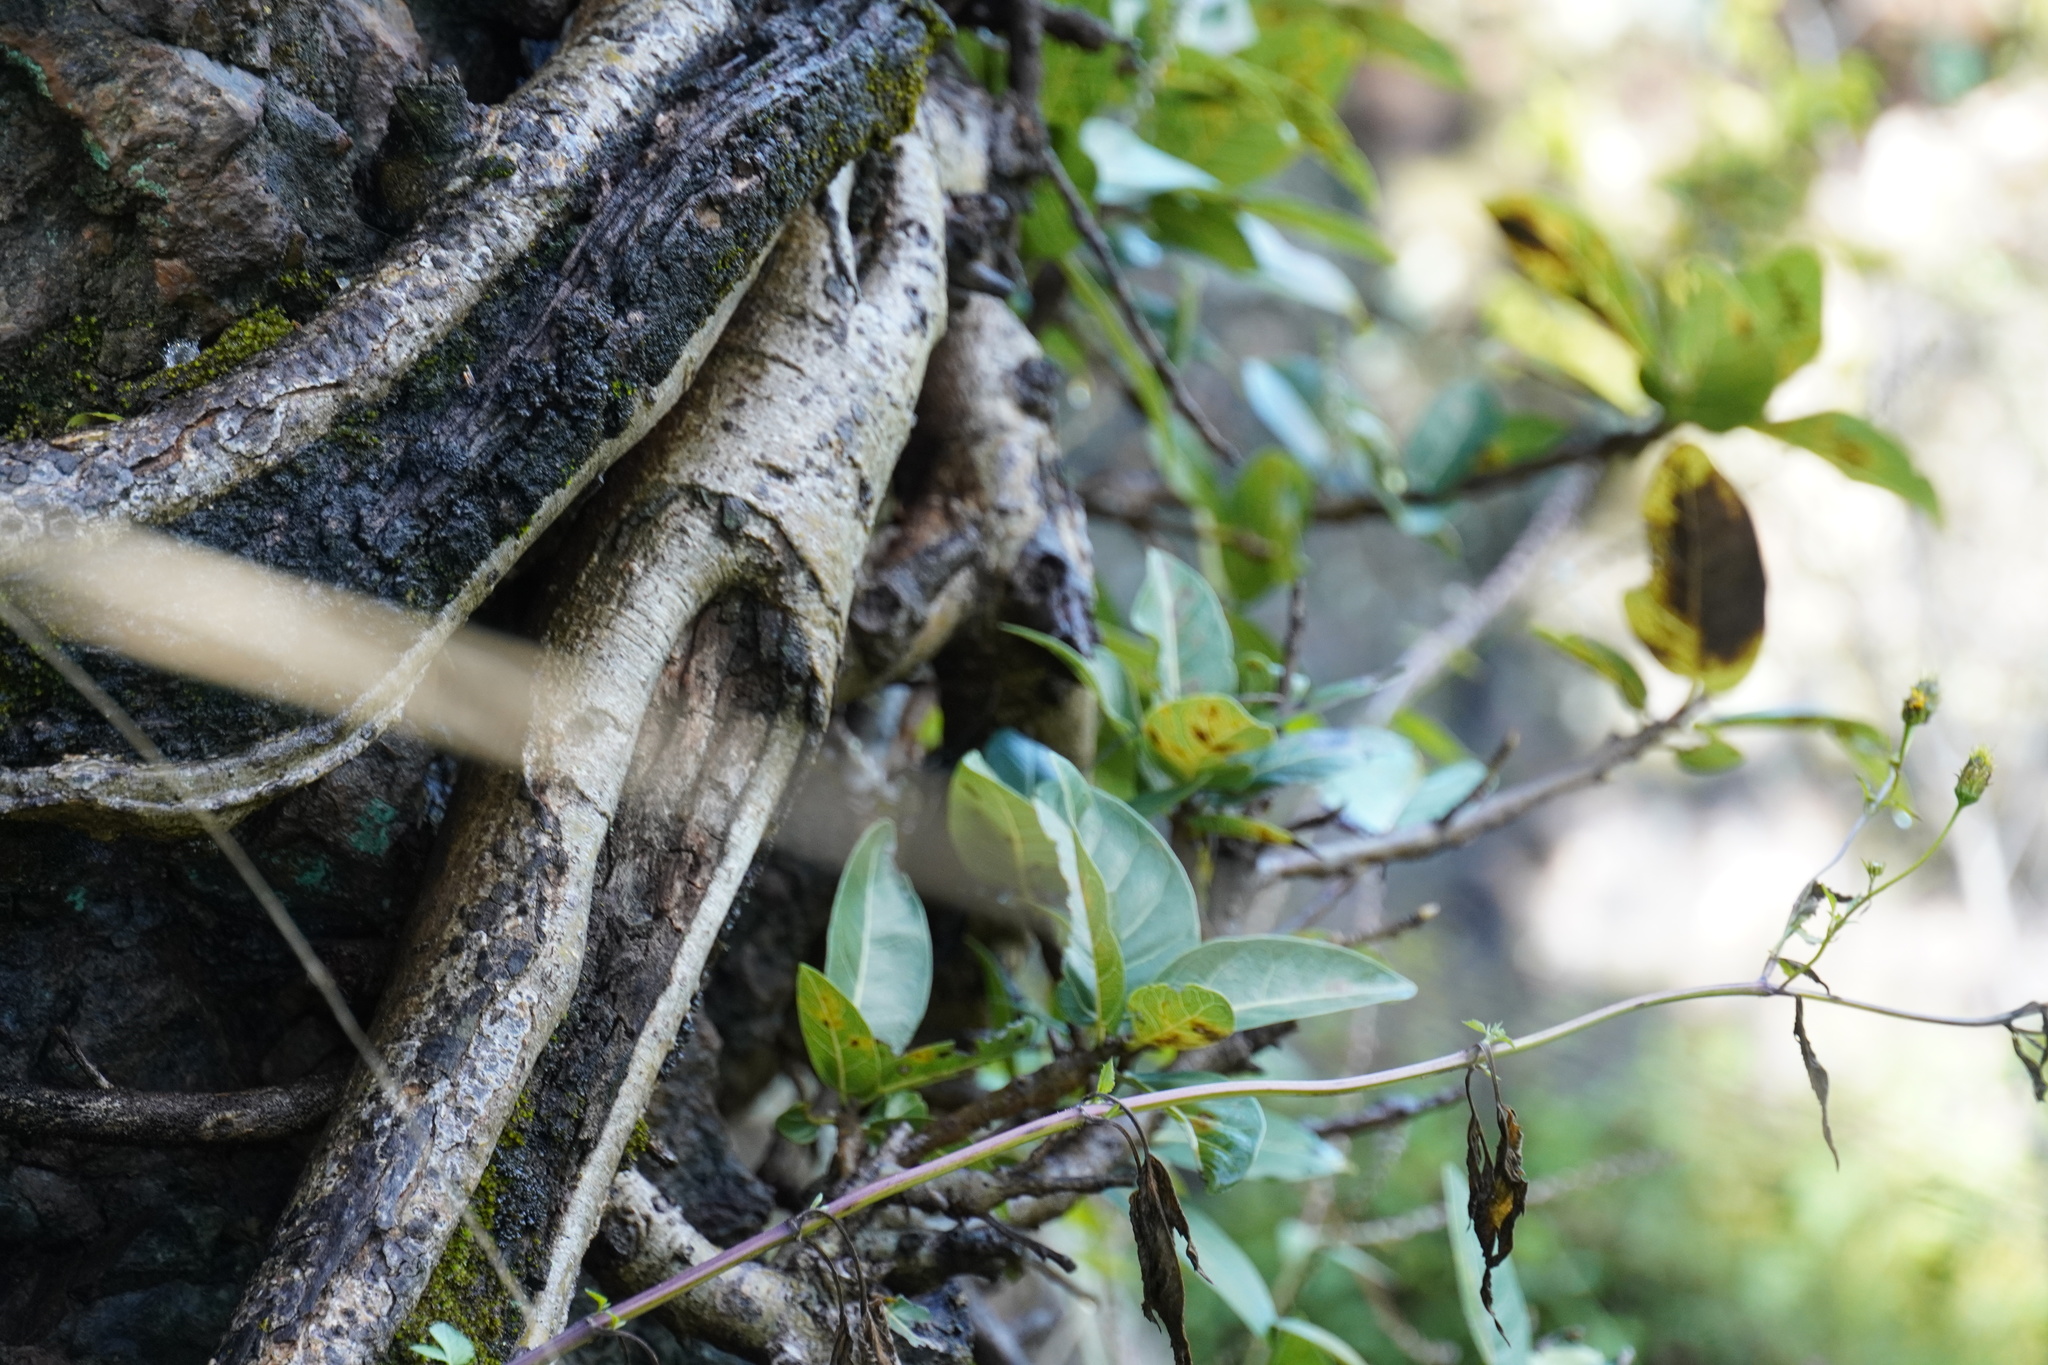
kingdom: Plantae
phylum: Tracheophyta
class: Magnoliopsida
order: Rosales
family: Moraceae
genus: Ficus
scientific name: Ficus ingens
